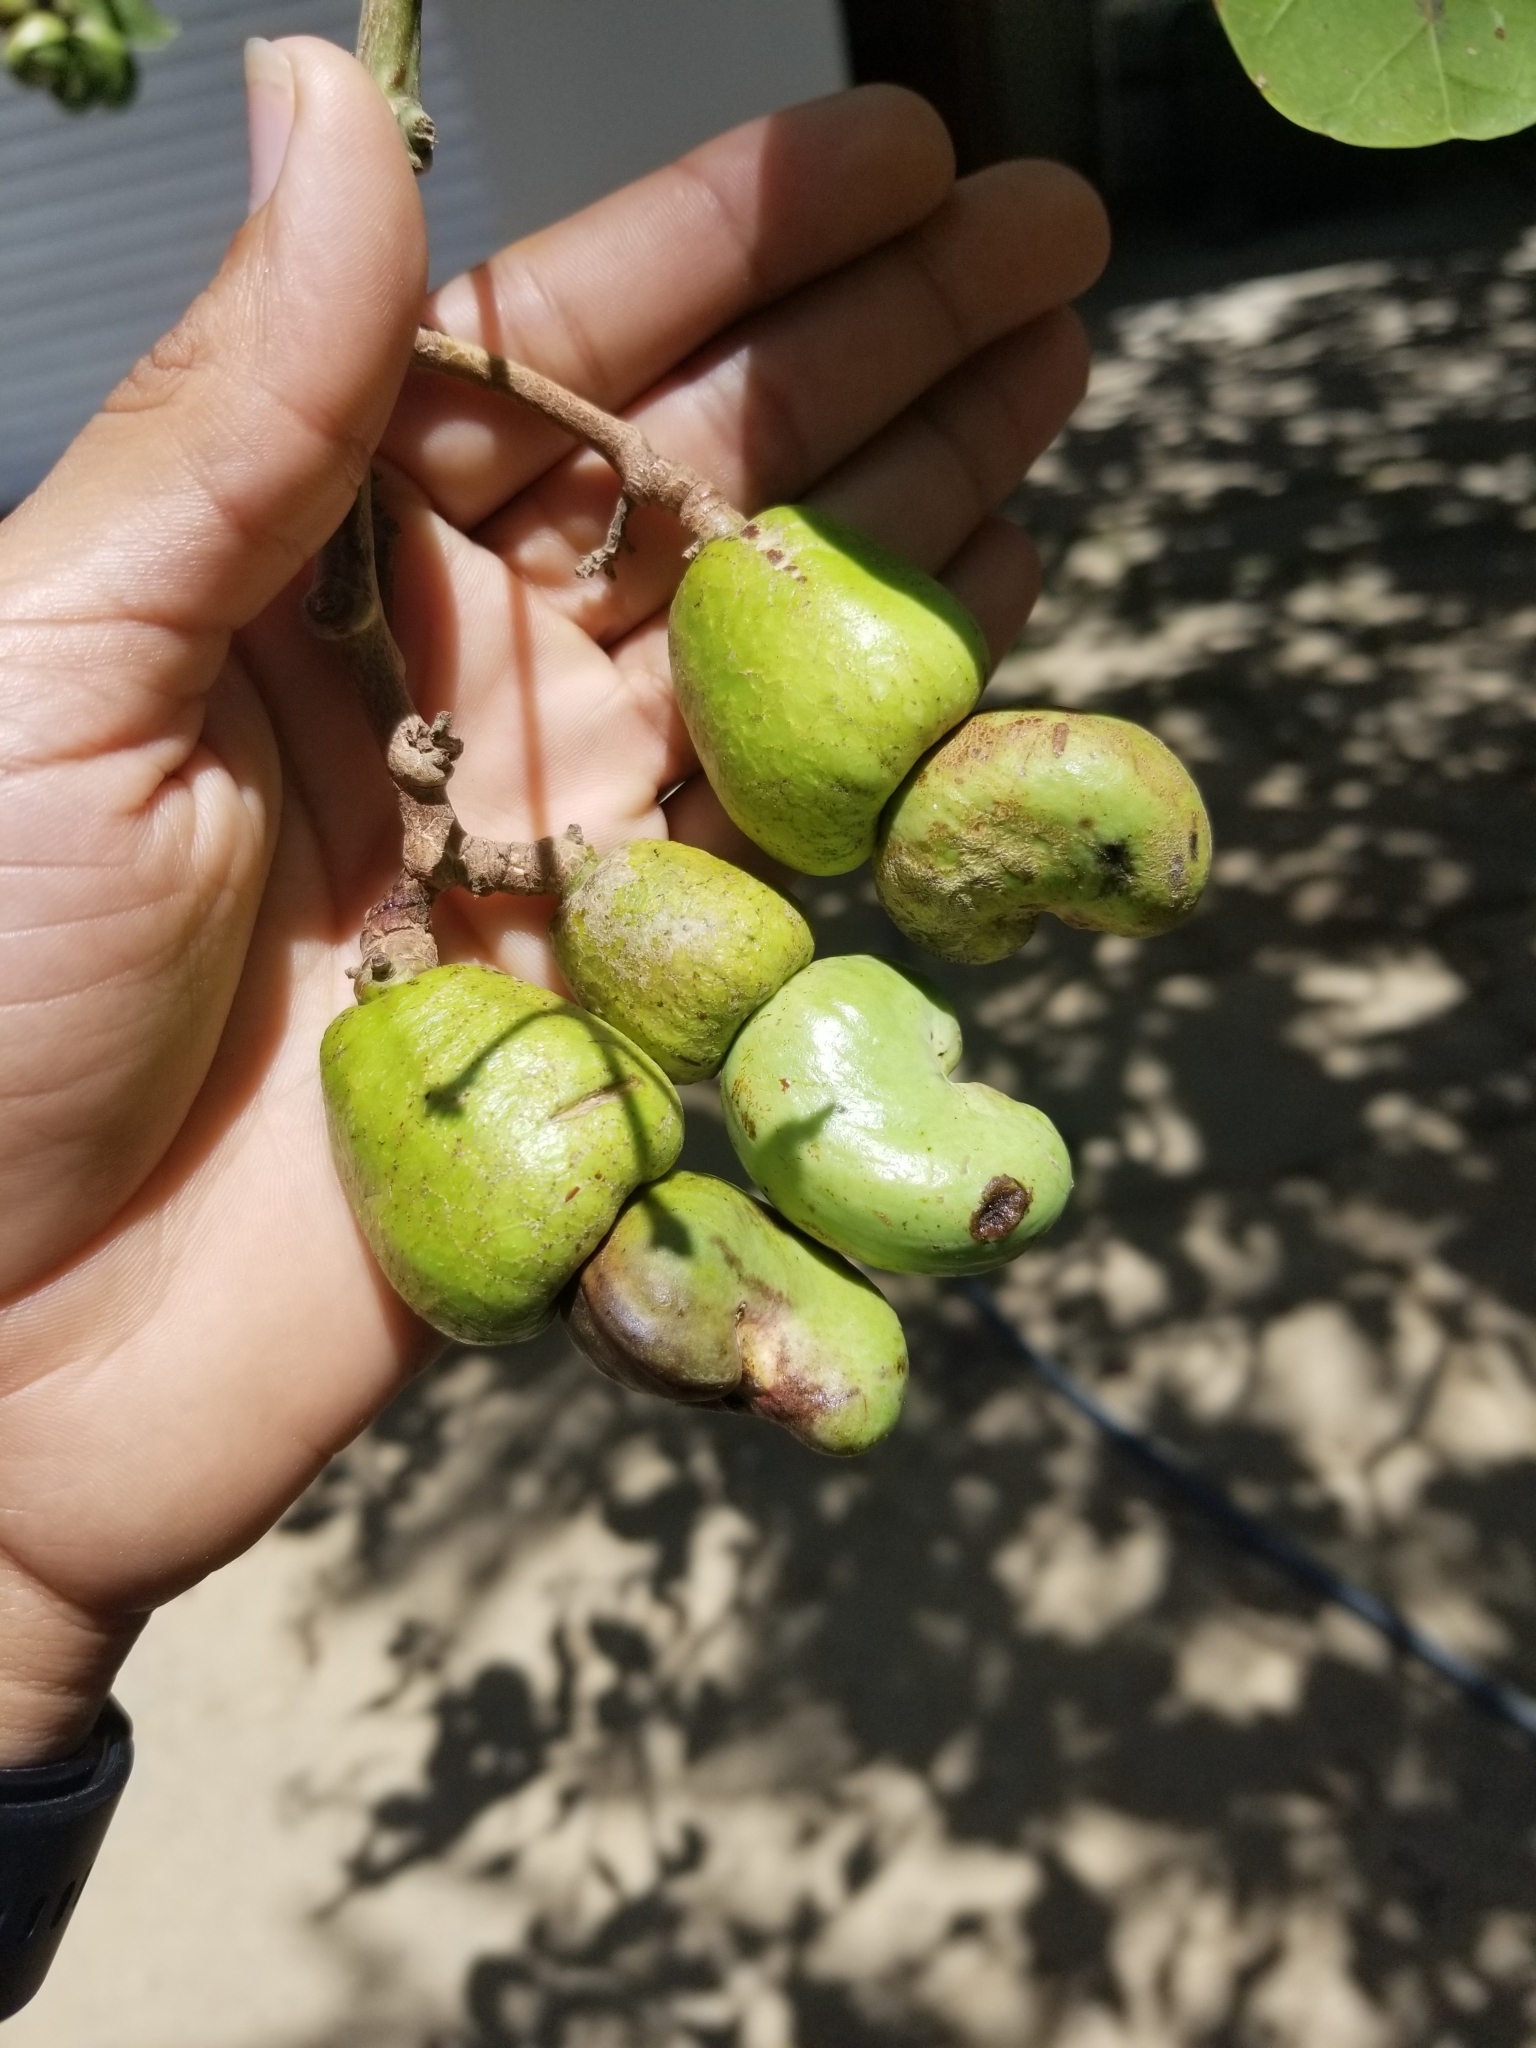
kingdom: Plantae
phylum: Tracheophyta
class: Magnoliopsida
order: Sapindales
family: Anacardiaceae
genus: Anacardium
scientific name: Anacardium occidentale
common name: Cashew
